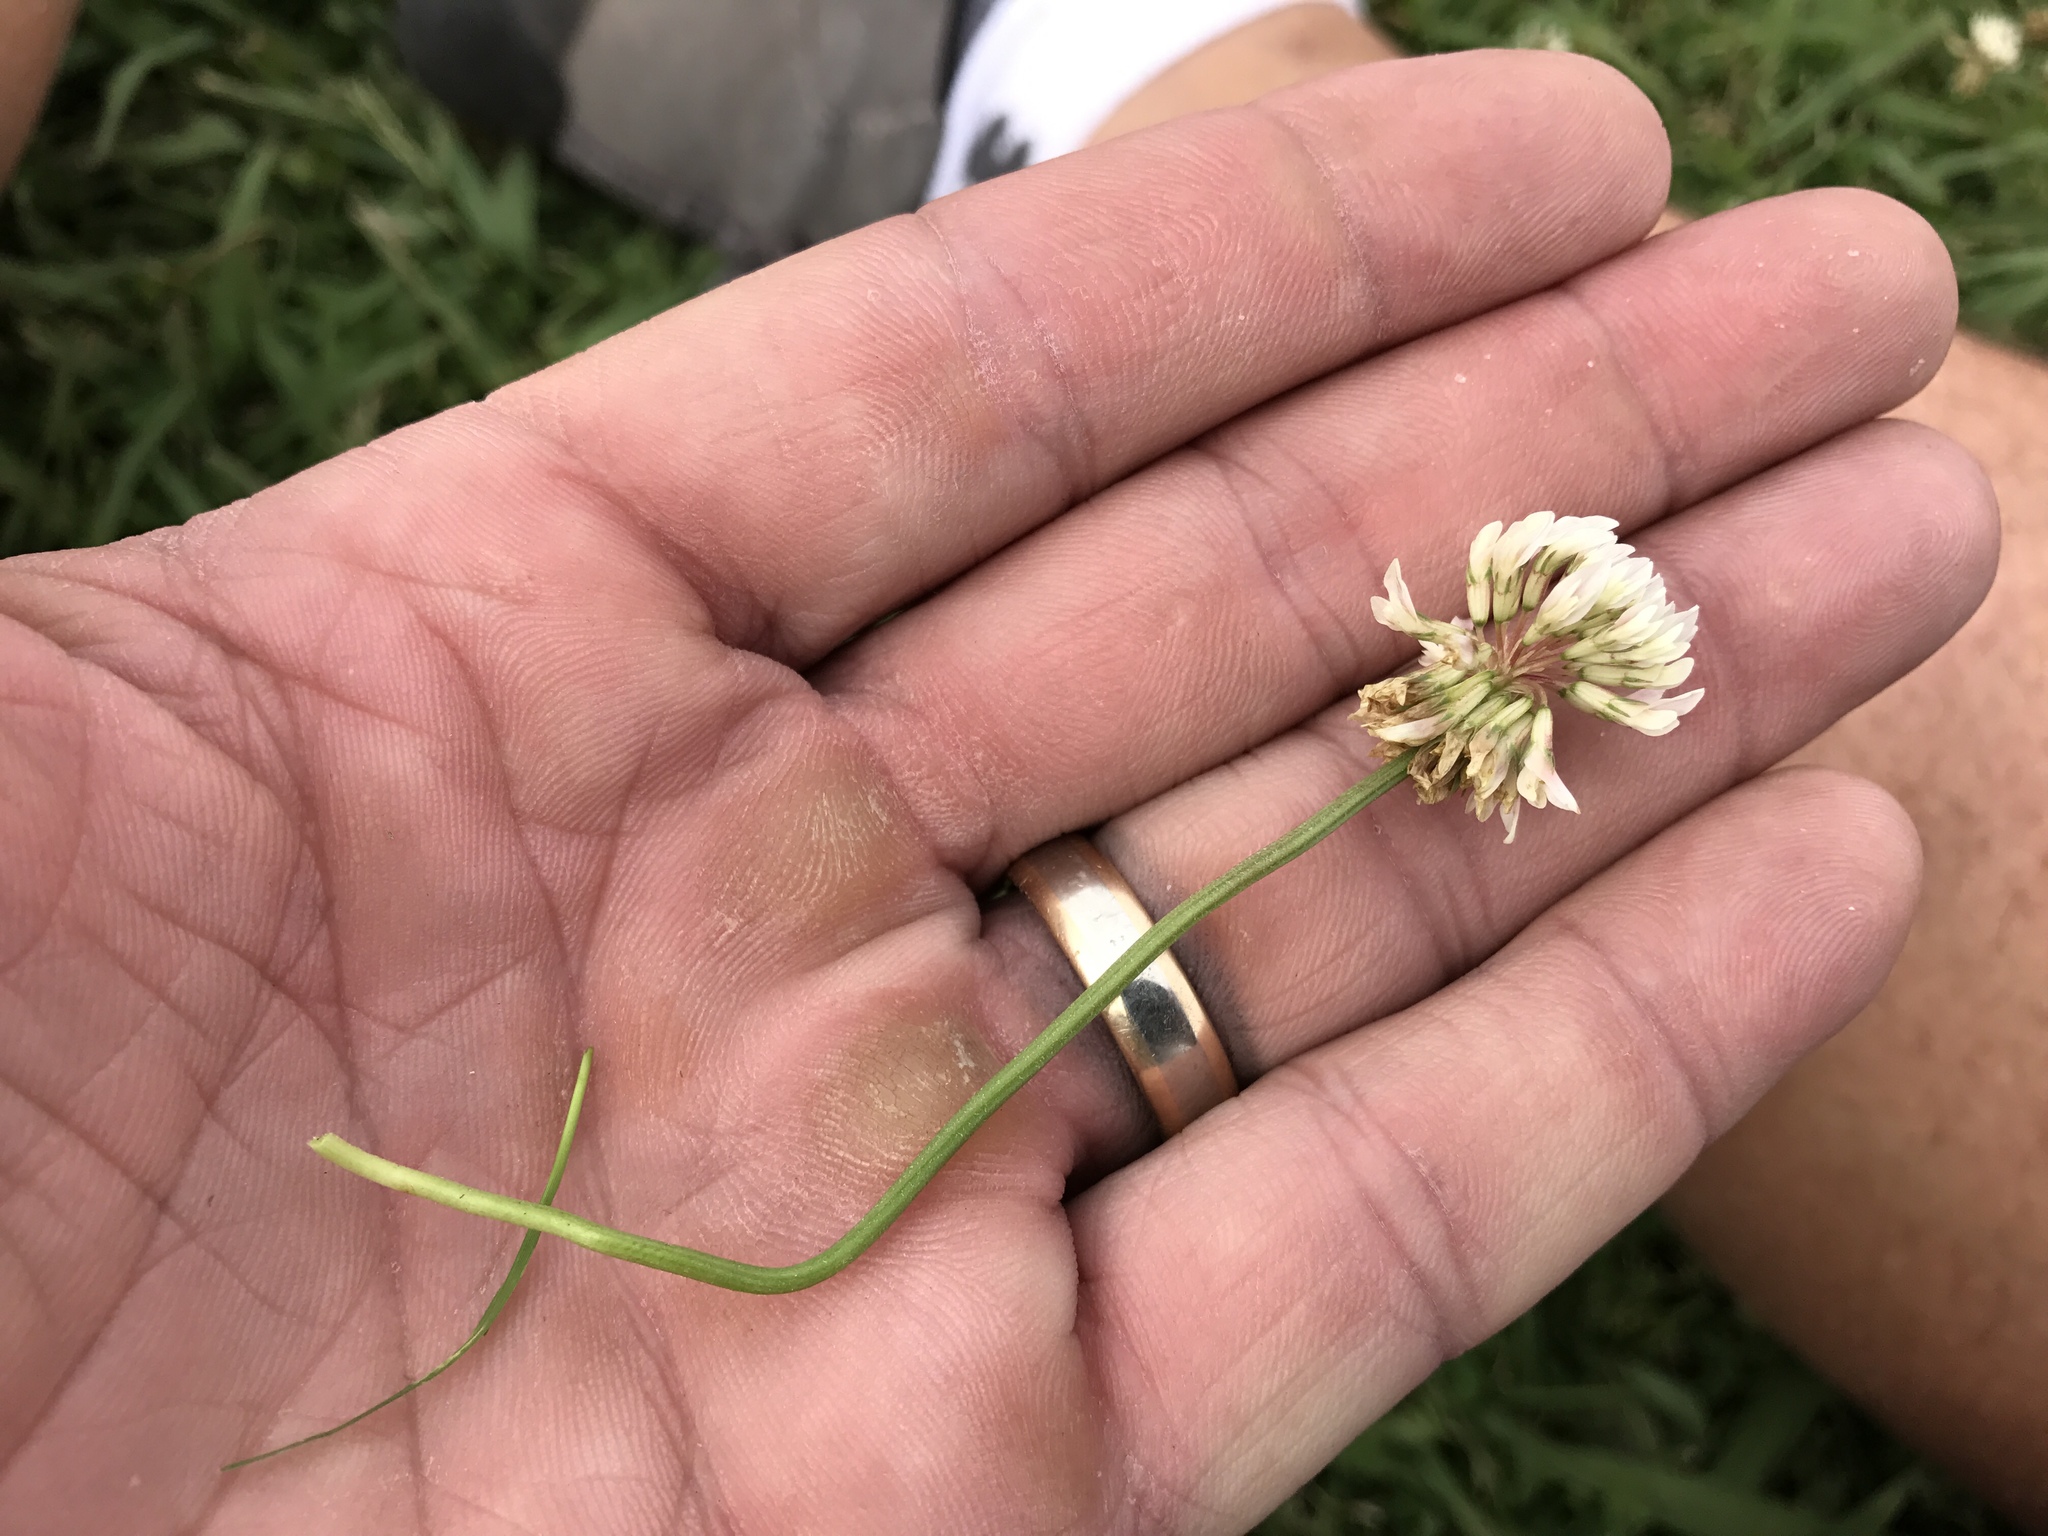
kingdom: Plantae
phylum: Tracheophyta
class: Magnoliopsida
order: Fabales
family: Fabaceae
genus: Trifolium
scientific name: Trifolium repens
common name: White clover
